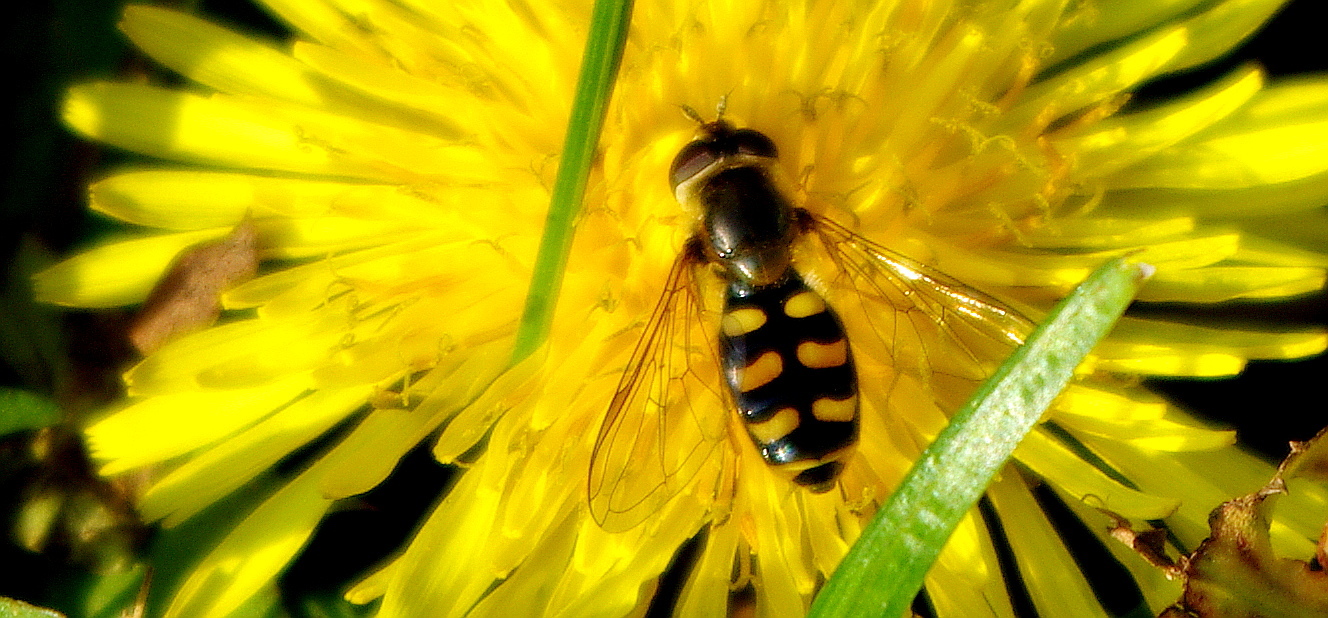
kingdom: Animalia
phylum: Arthropoda
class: Insecta
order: Diptera
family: Syrphidae
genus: Eupeodes
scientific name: Eupeodes
